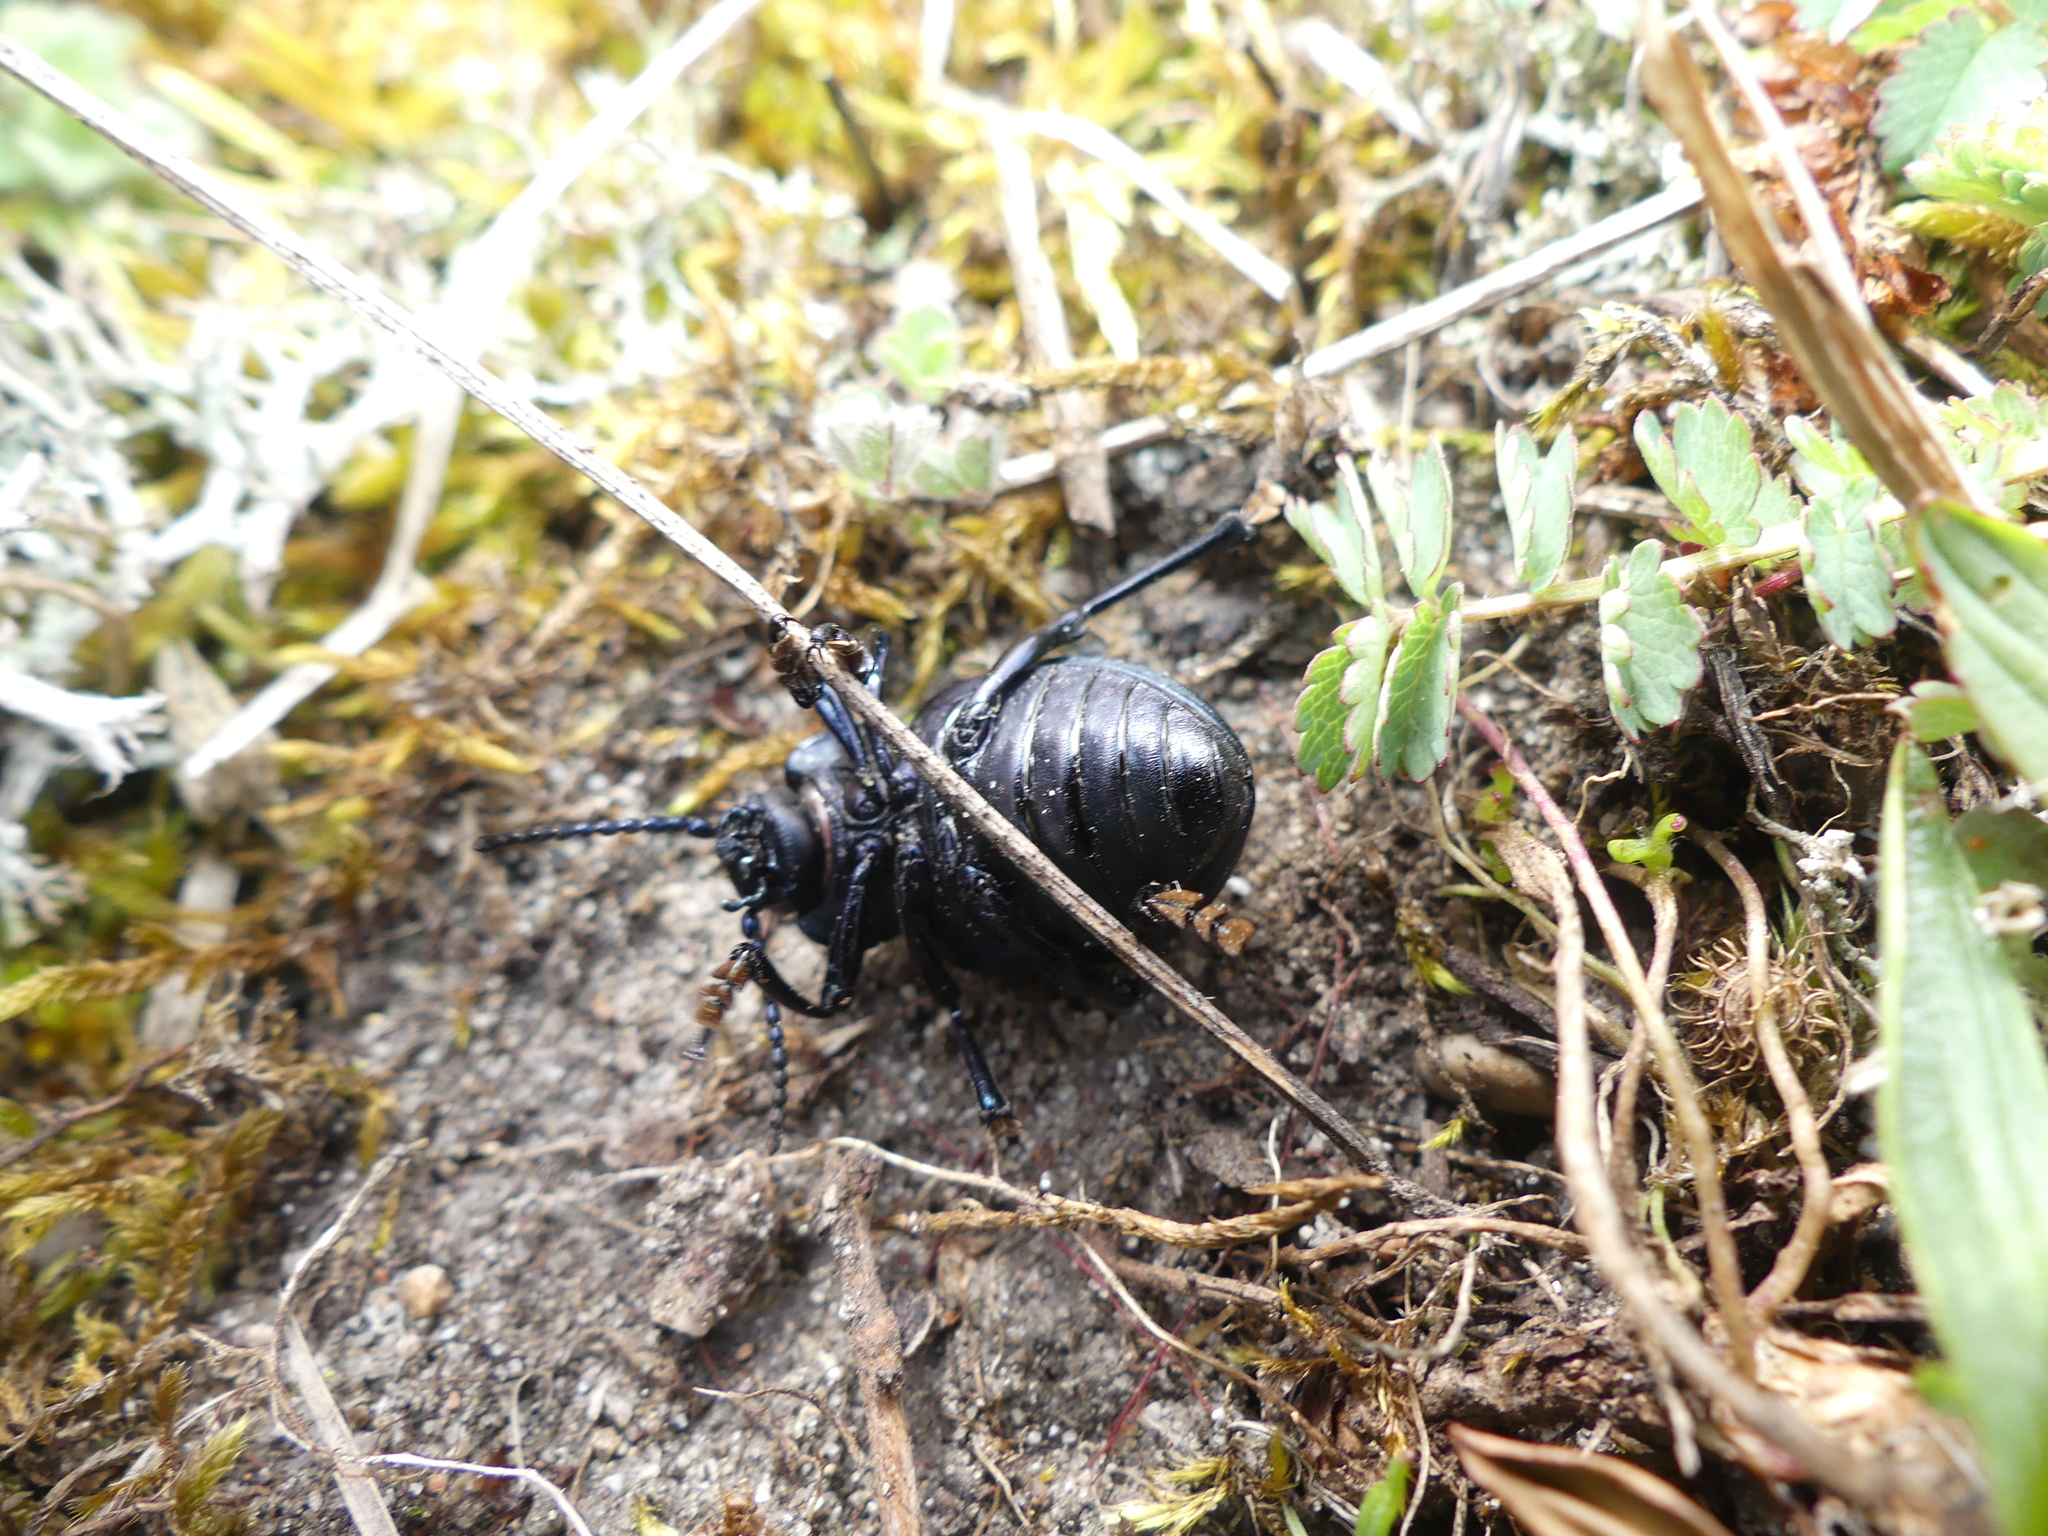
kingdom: Animalia
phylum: Arthropoda
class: Insecta
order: Coleoptera
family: Chrysomelidae
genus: Timarcha
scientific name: Timarcha tenebricosa
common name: Bloody-nosed beetle
